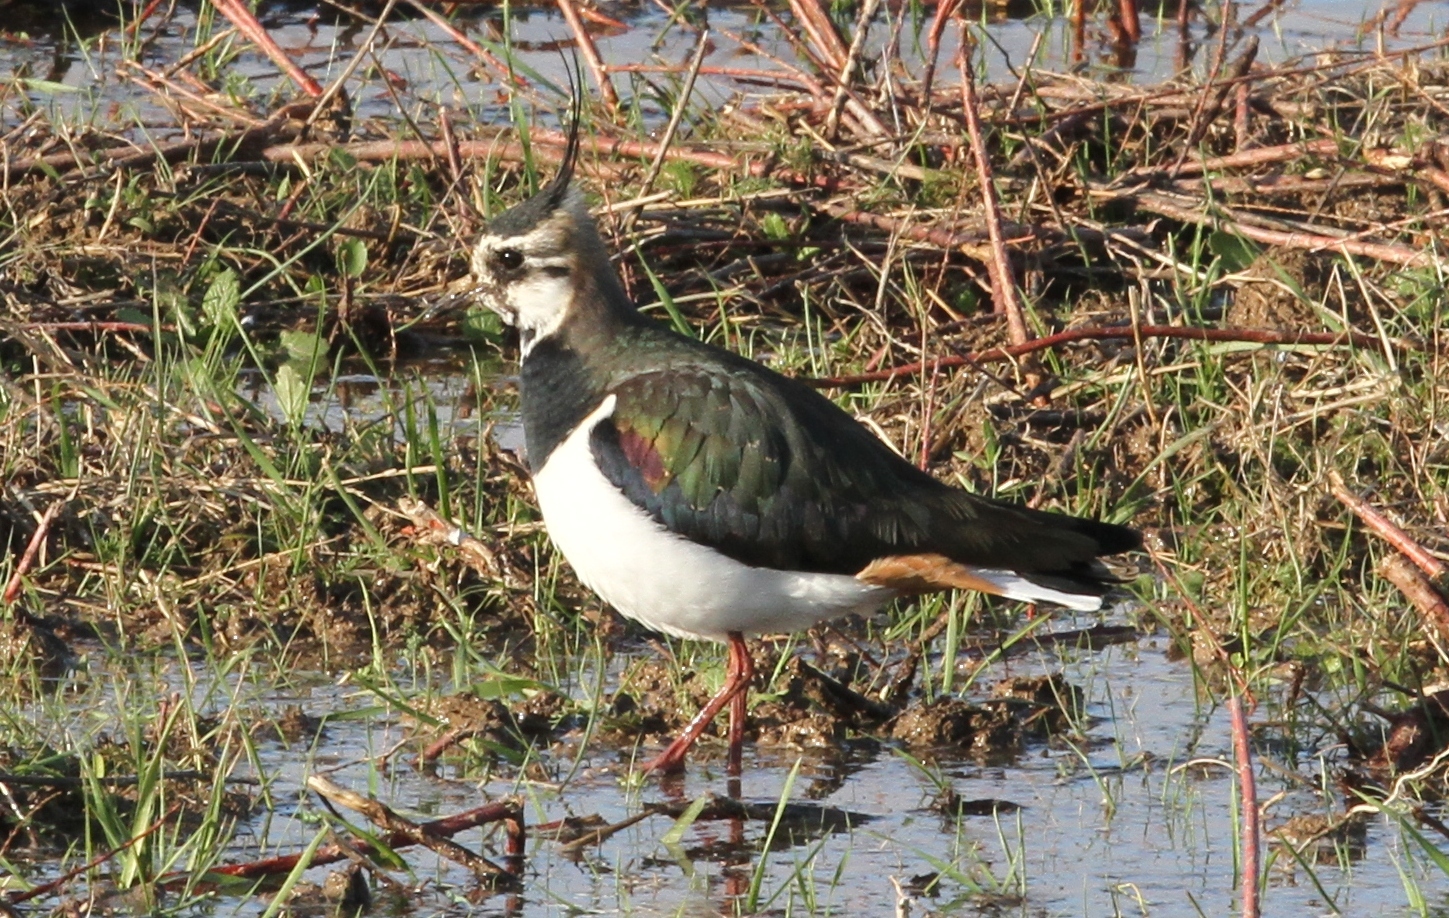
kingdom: Animalia
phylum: Chordata
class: Aves
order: Charadriiformes
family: Charadriidae
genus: Vanellus
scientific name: Vanellus vanellus
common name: Northern lapwing
